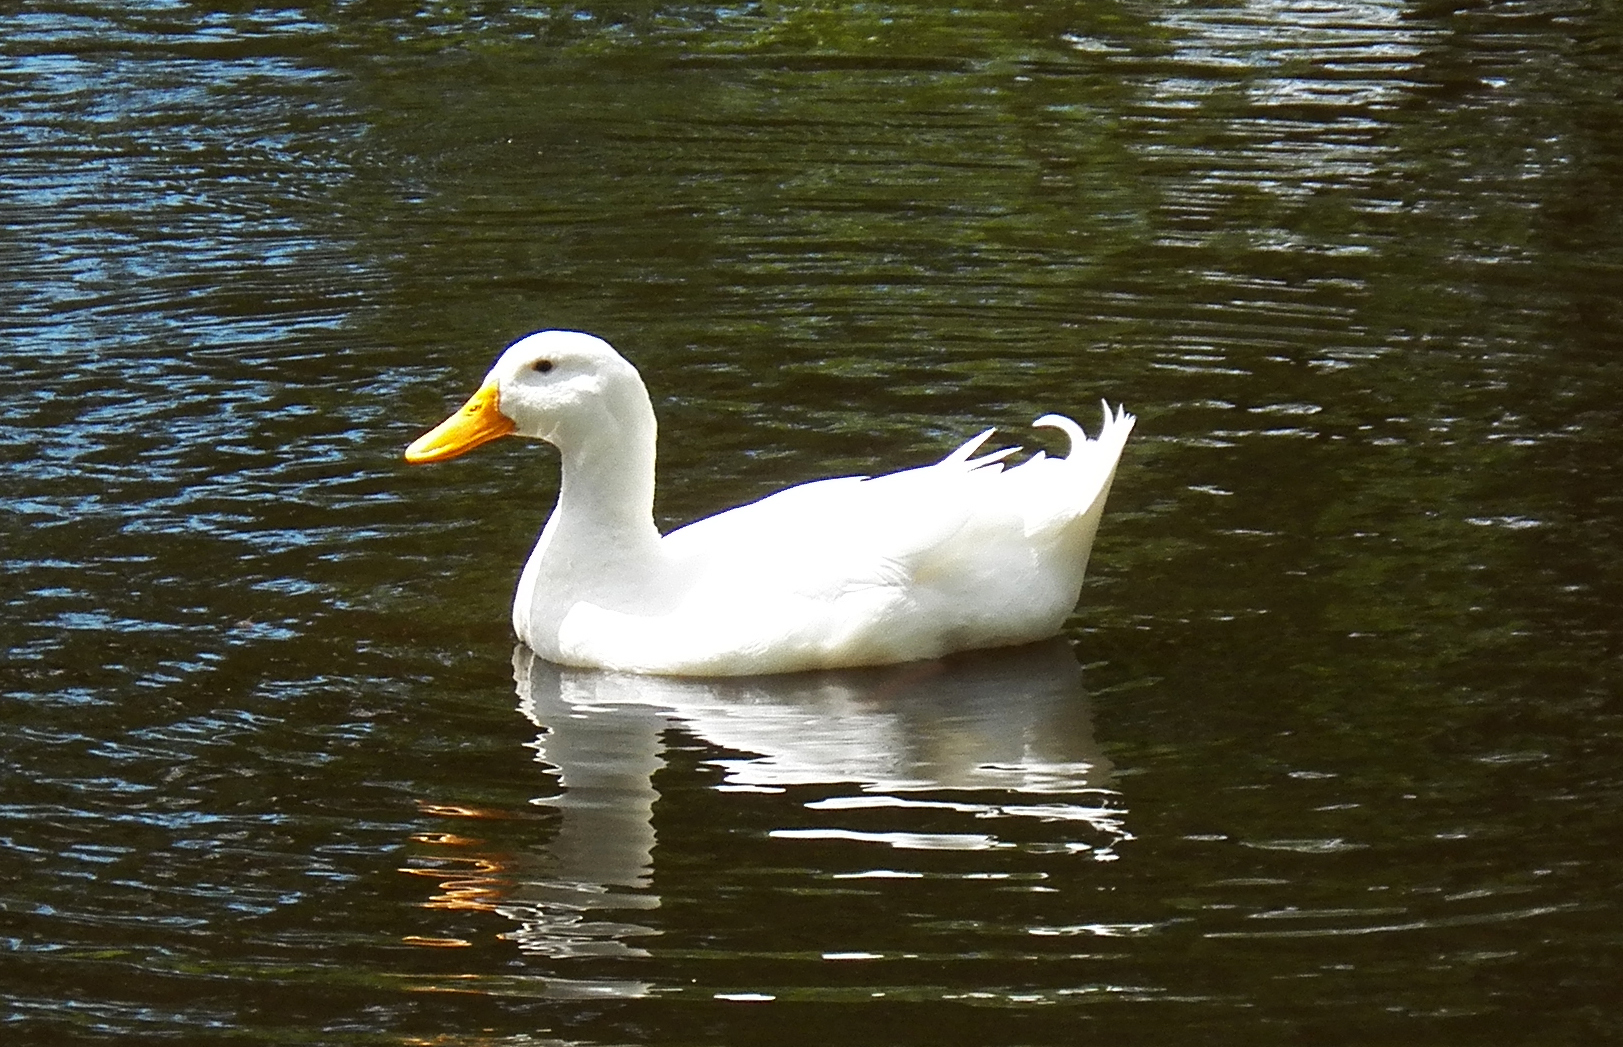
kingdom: Animalia
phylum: Chordata
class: Aves
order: Anseriformes
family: Anatidae
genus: Anas
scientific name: Anas platyrhynchos
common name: Mallard
